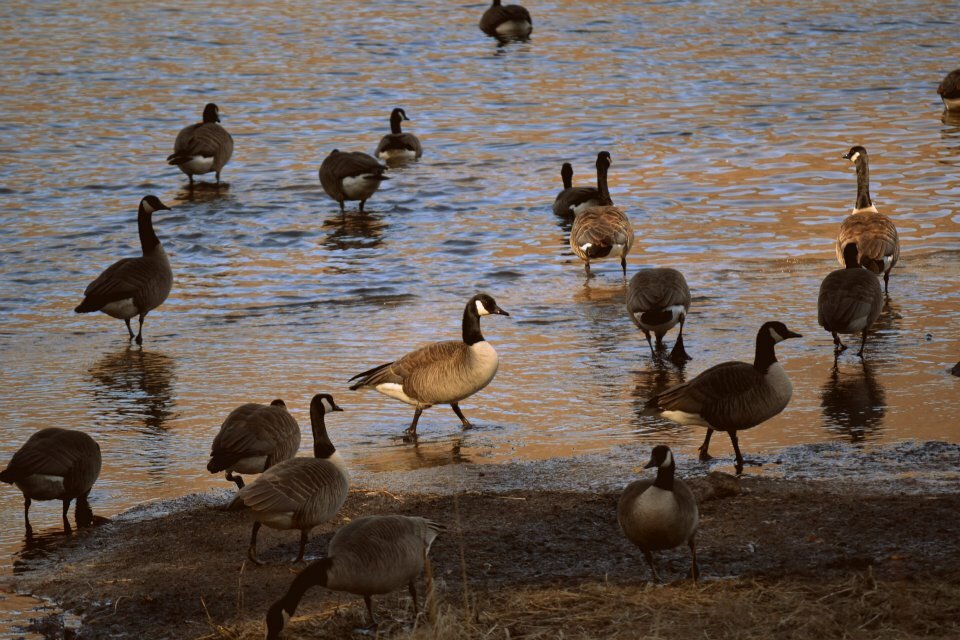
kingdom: Animalia
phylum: Chordata
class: Aves
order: Anseriformes
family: Anatidae
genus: Branta
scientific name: Branta canadensis
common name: Canada goose
